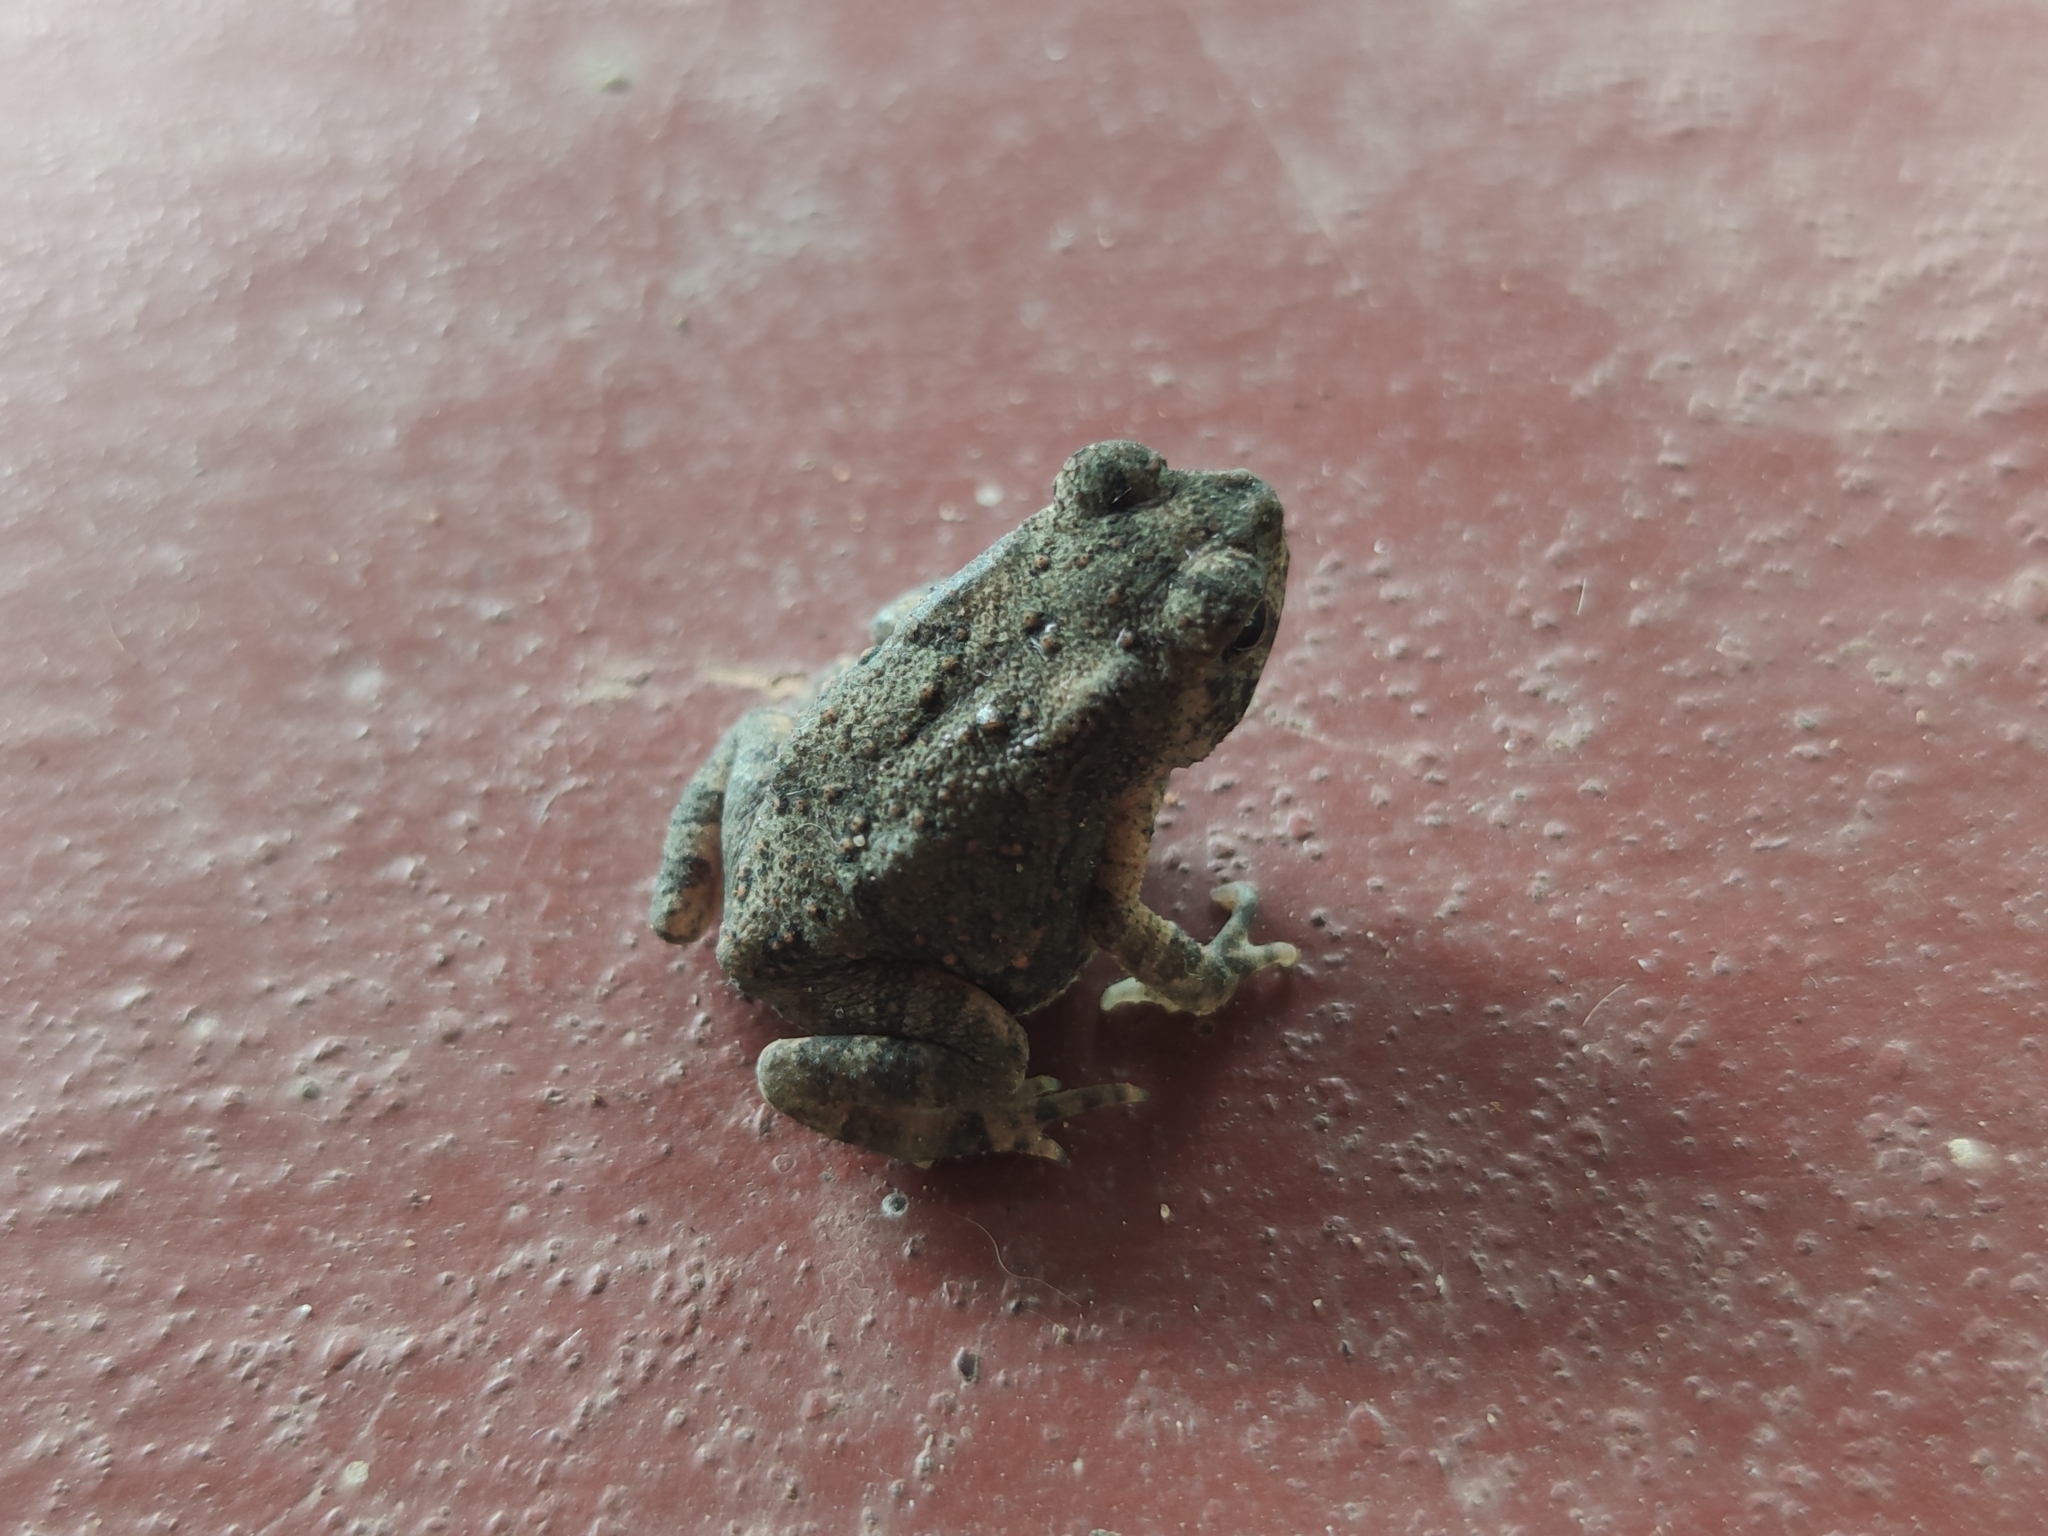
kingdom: Animalia
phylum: Chordata
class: Amphibia
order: Anura
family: Bufonidae
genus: Duttaphrynus
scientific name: Duttaphrynus melanostictus
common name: Common sunda toad
